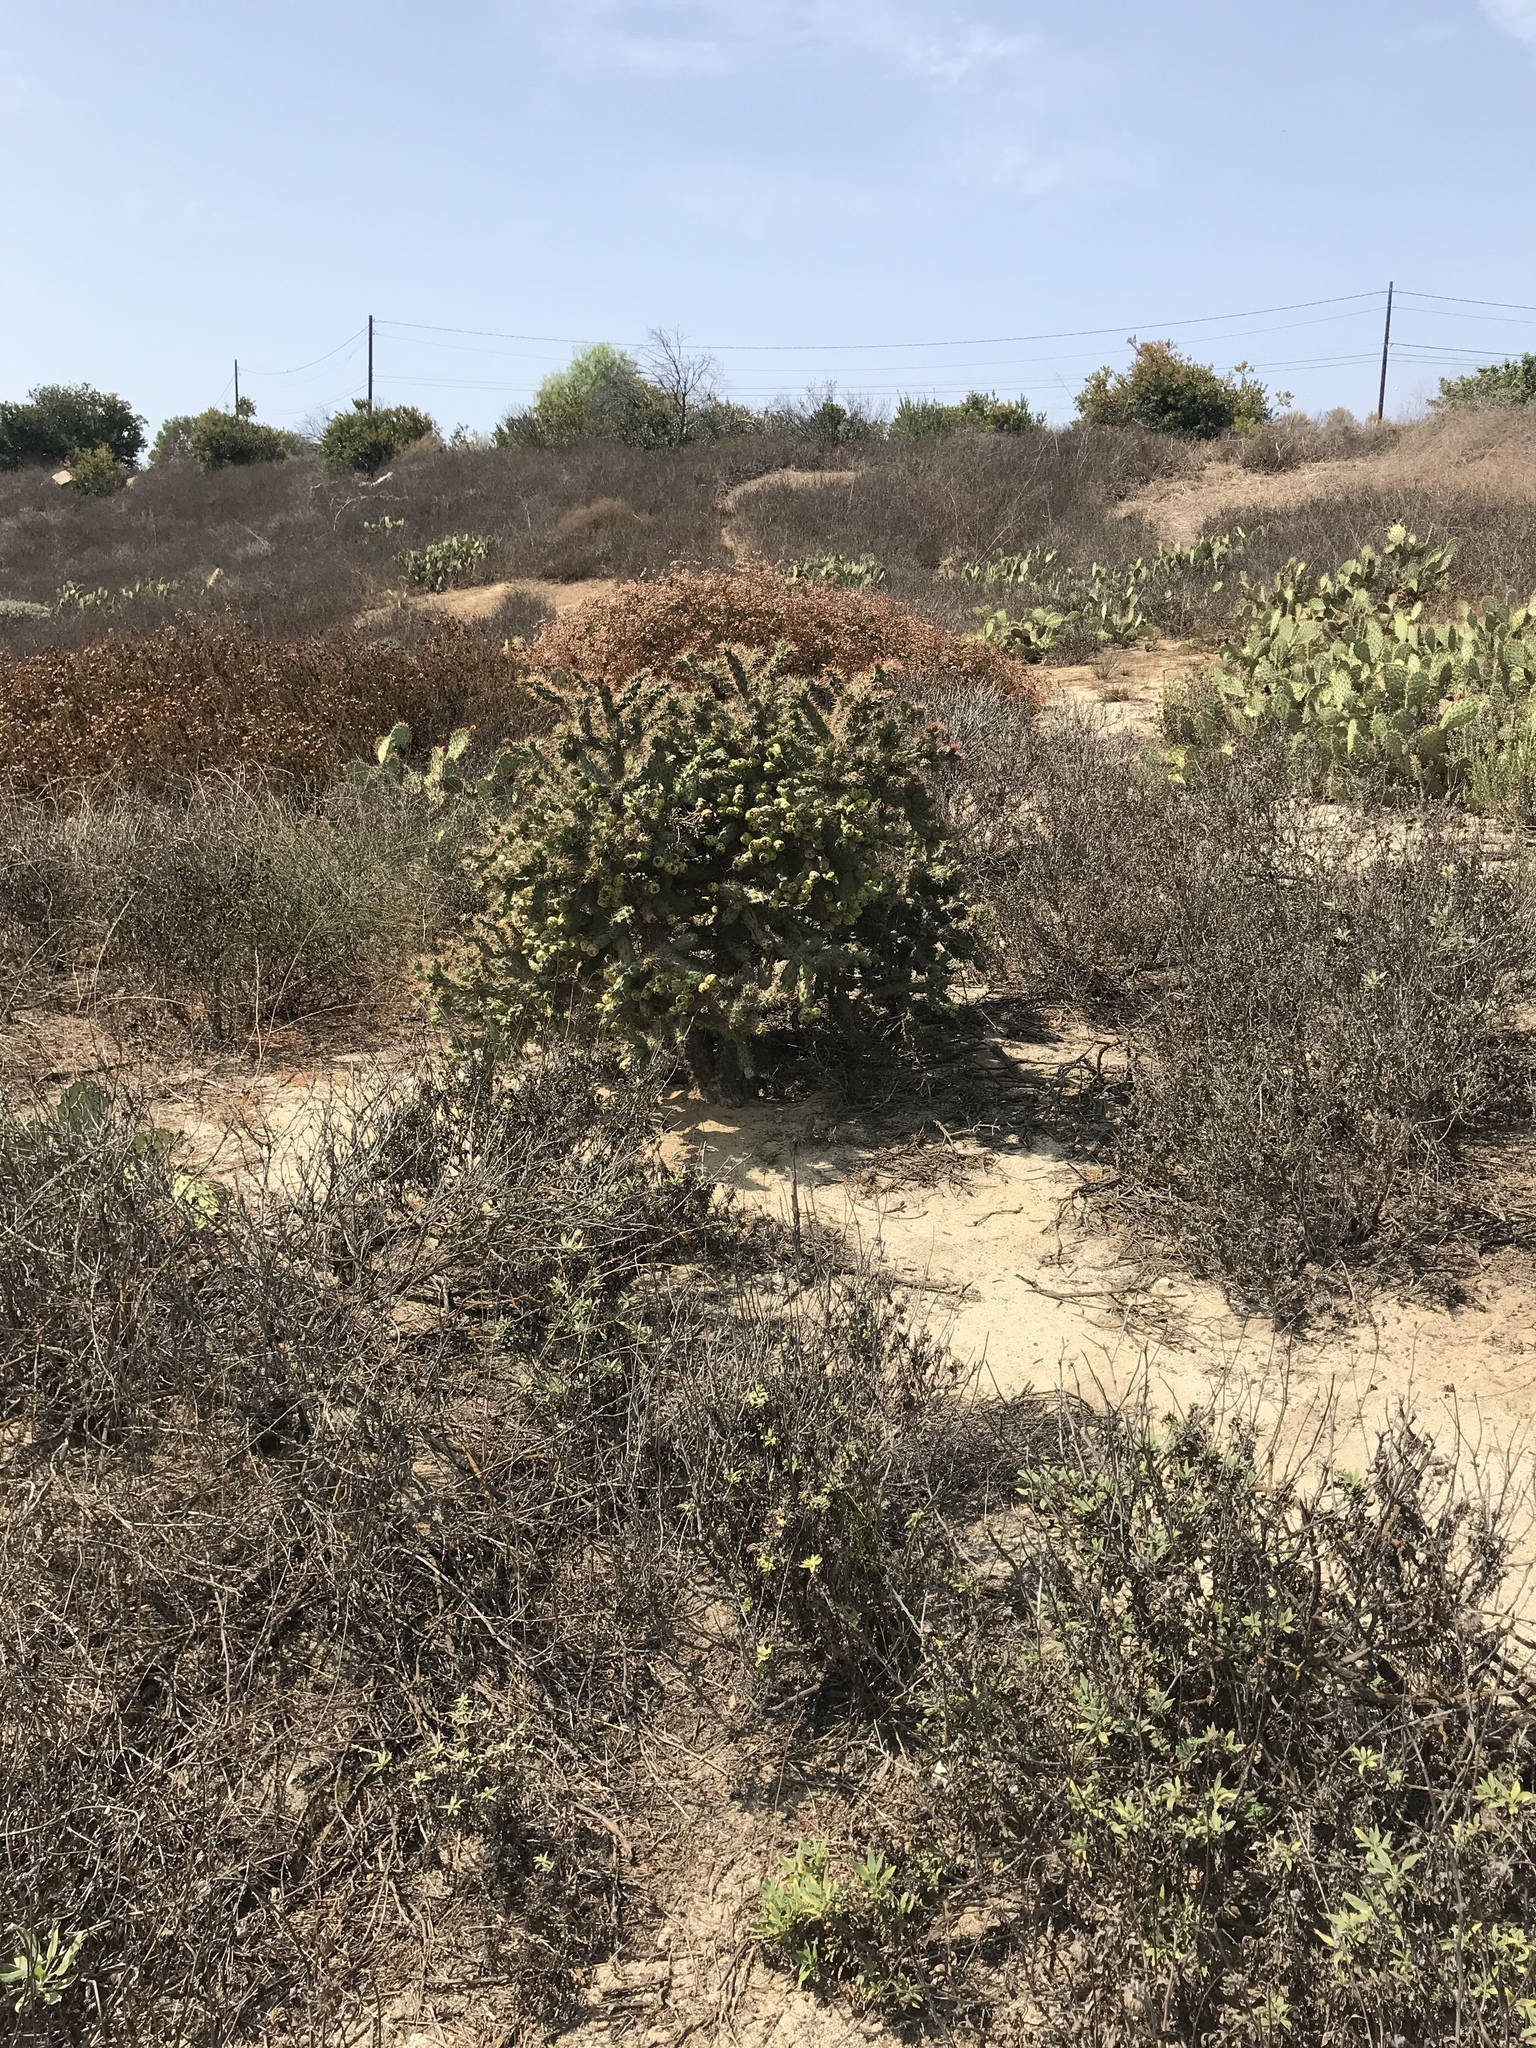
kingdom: Plantae
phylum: Tracheophyta
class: Magnoliopsida
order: Caryophyllales
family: Cactaceae
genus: Cylindropuntia
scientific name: Cylindropuntia prolifera
